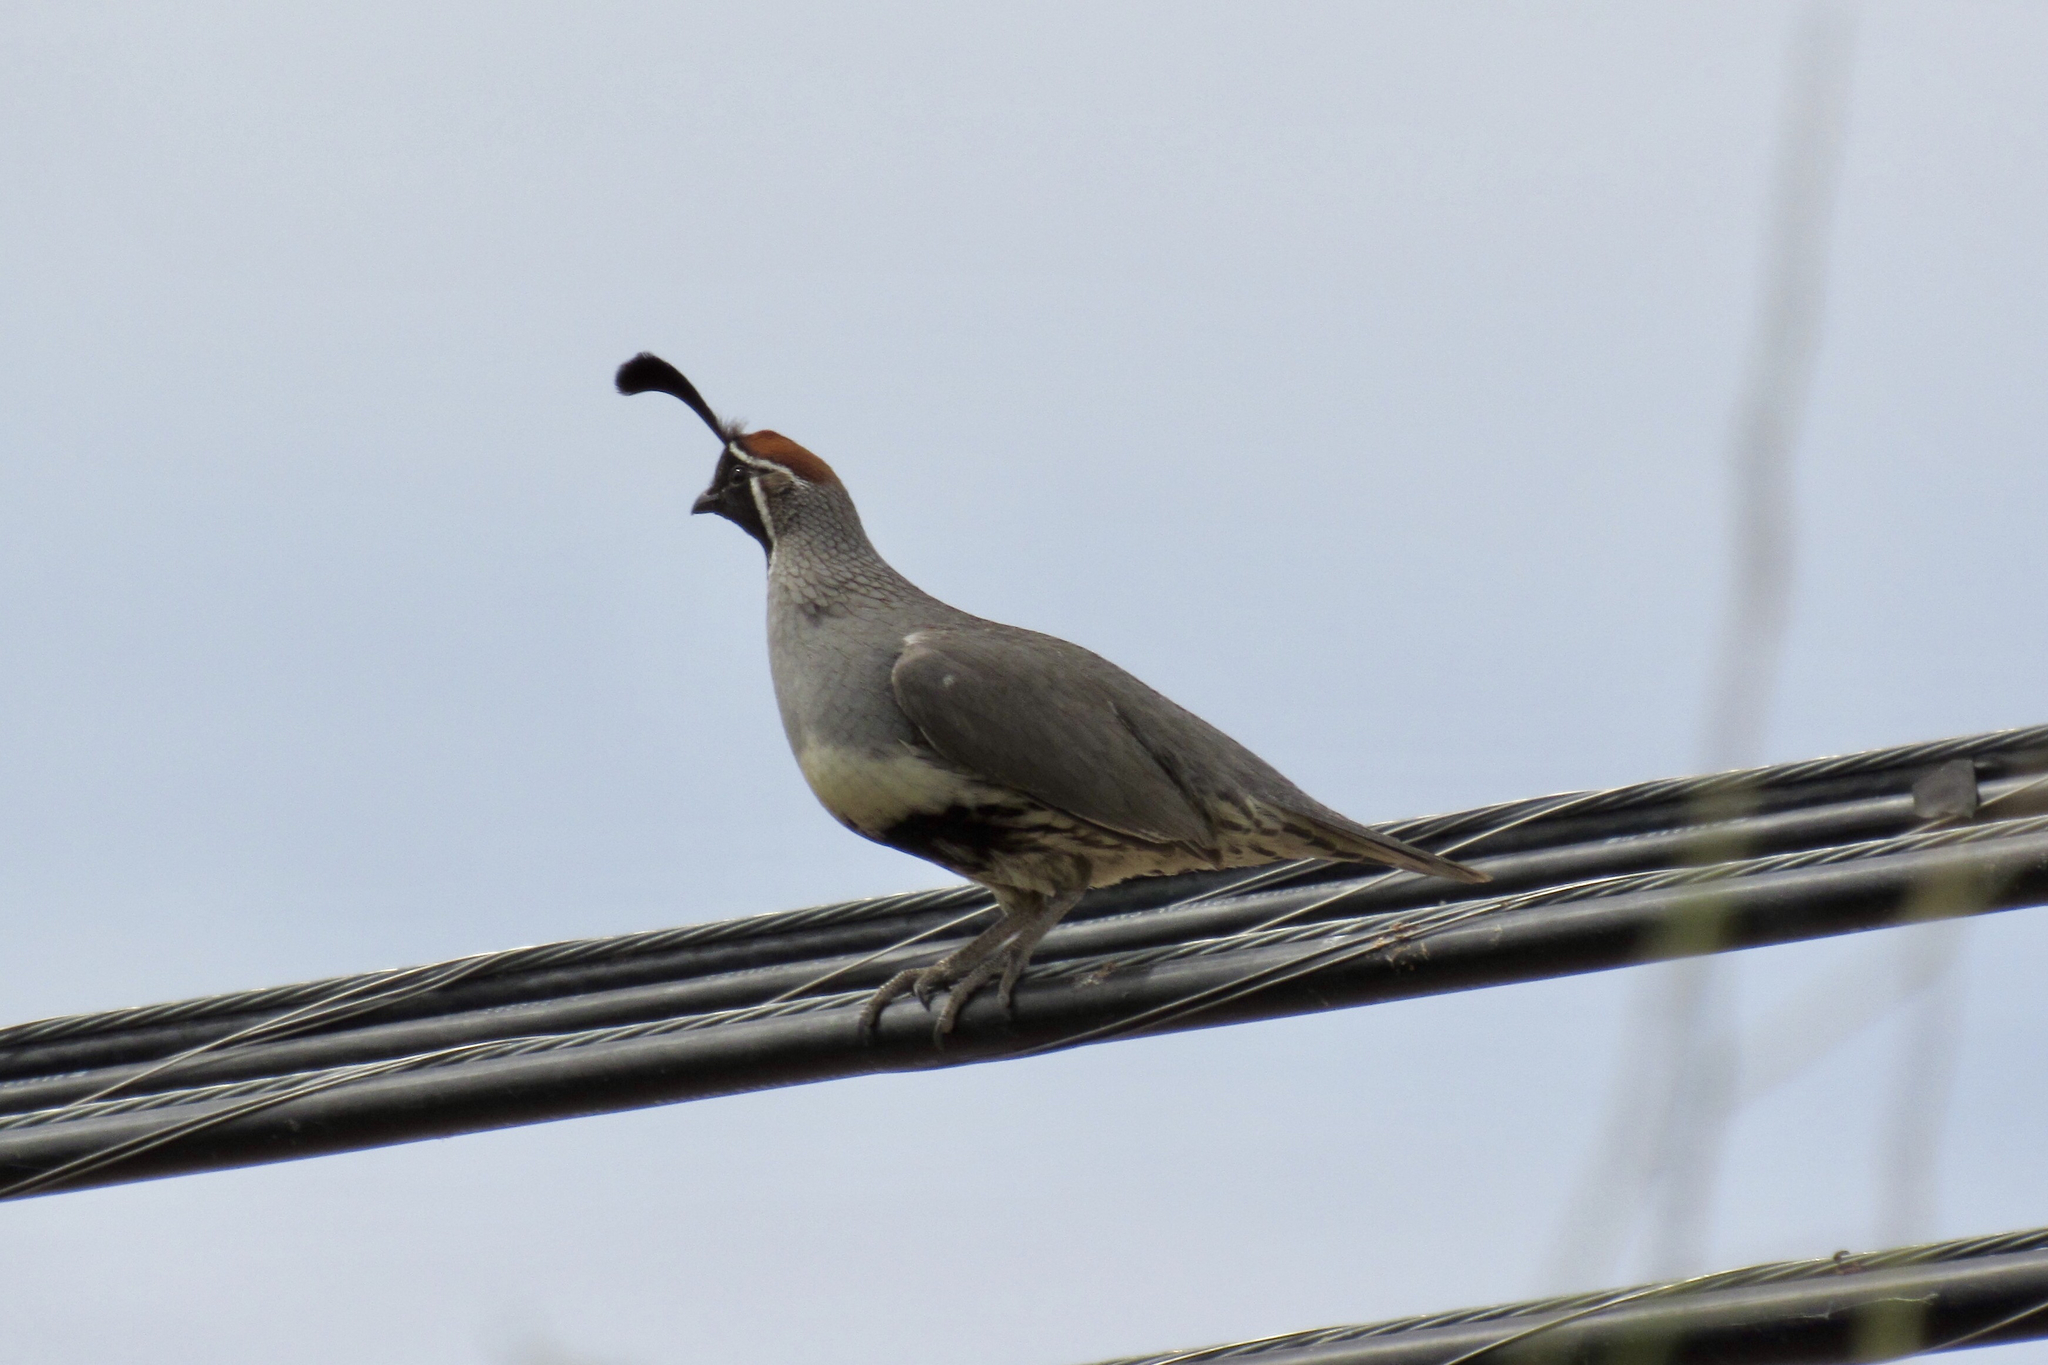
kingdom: Animalia
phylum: Chordata
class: Aves
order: Galliformes
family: Odontophoridae
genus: Callipepla
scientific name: Callipepla gambelii
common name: Gambel's quail
